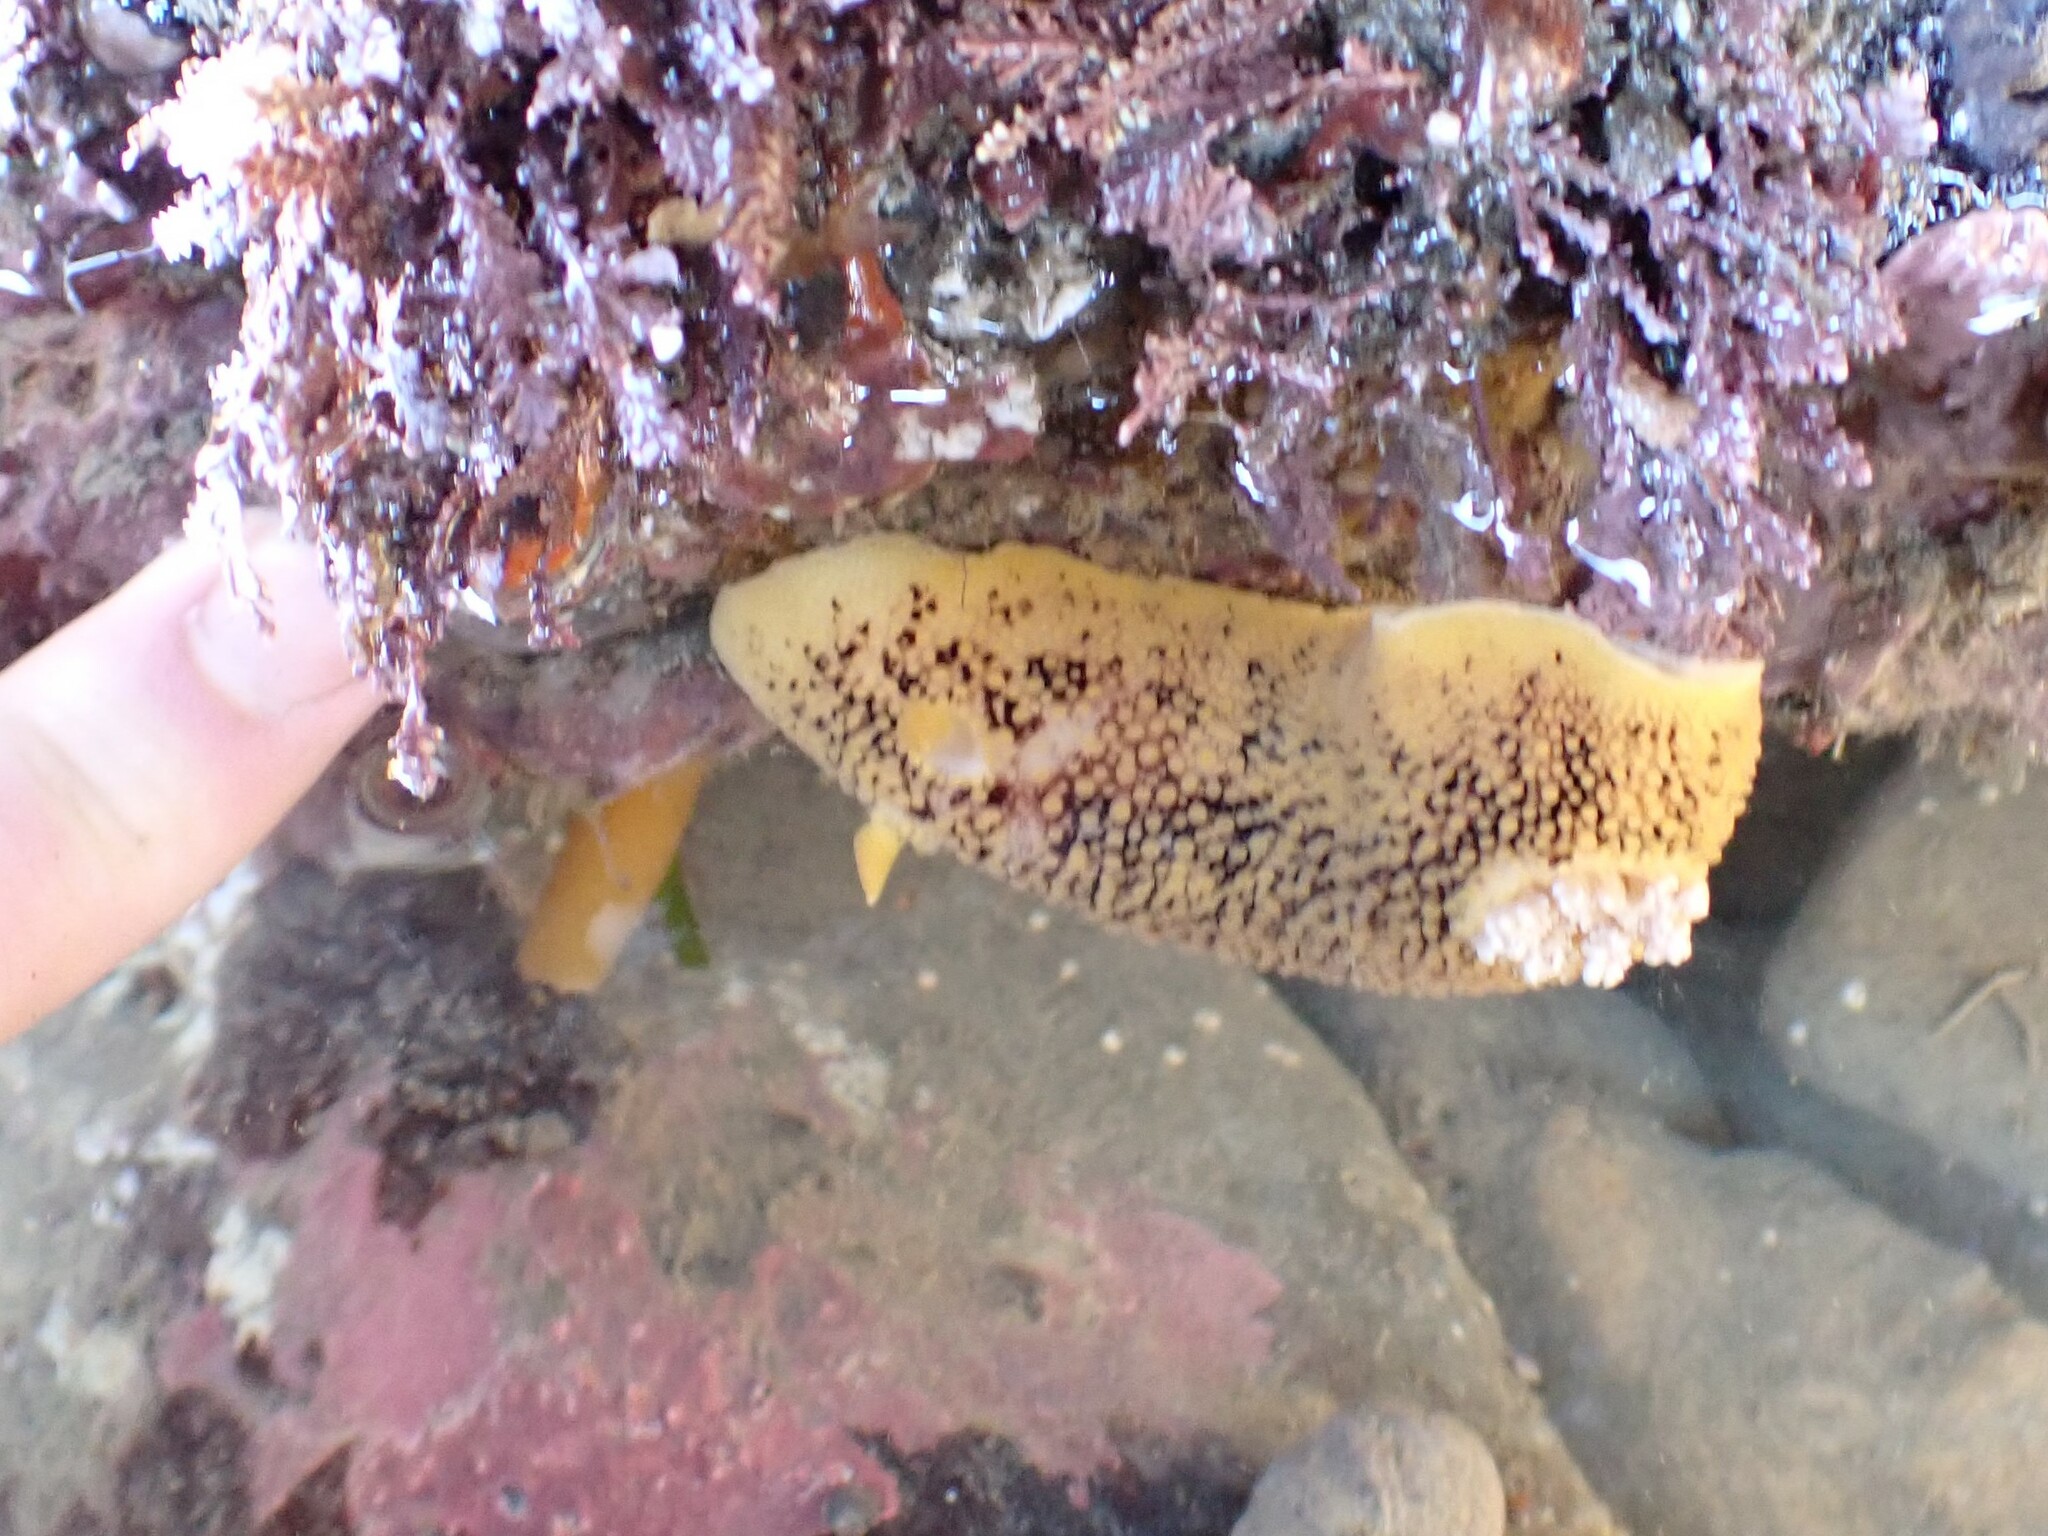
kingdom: Animalia
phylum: Mollusca
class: Gastropoda
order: Nudibranchia
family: Discodorididae
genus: Peltodoris
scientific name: Peltodoris nobilis
